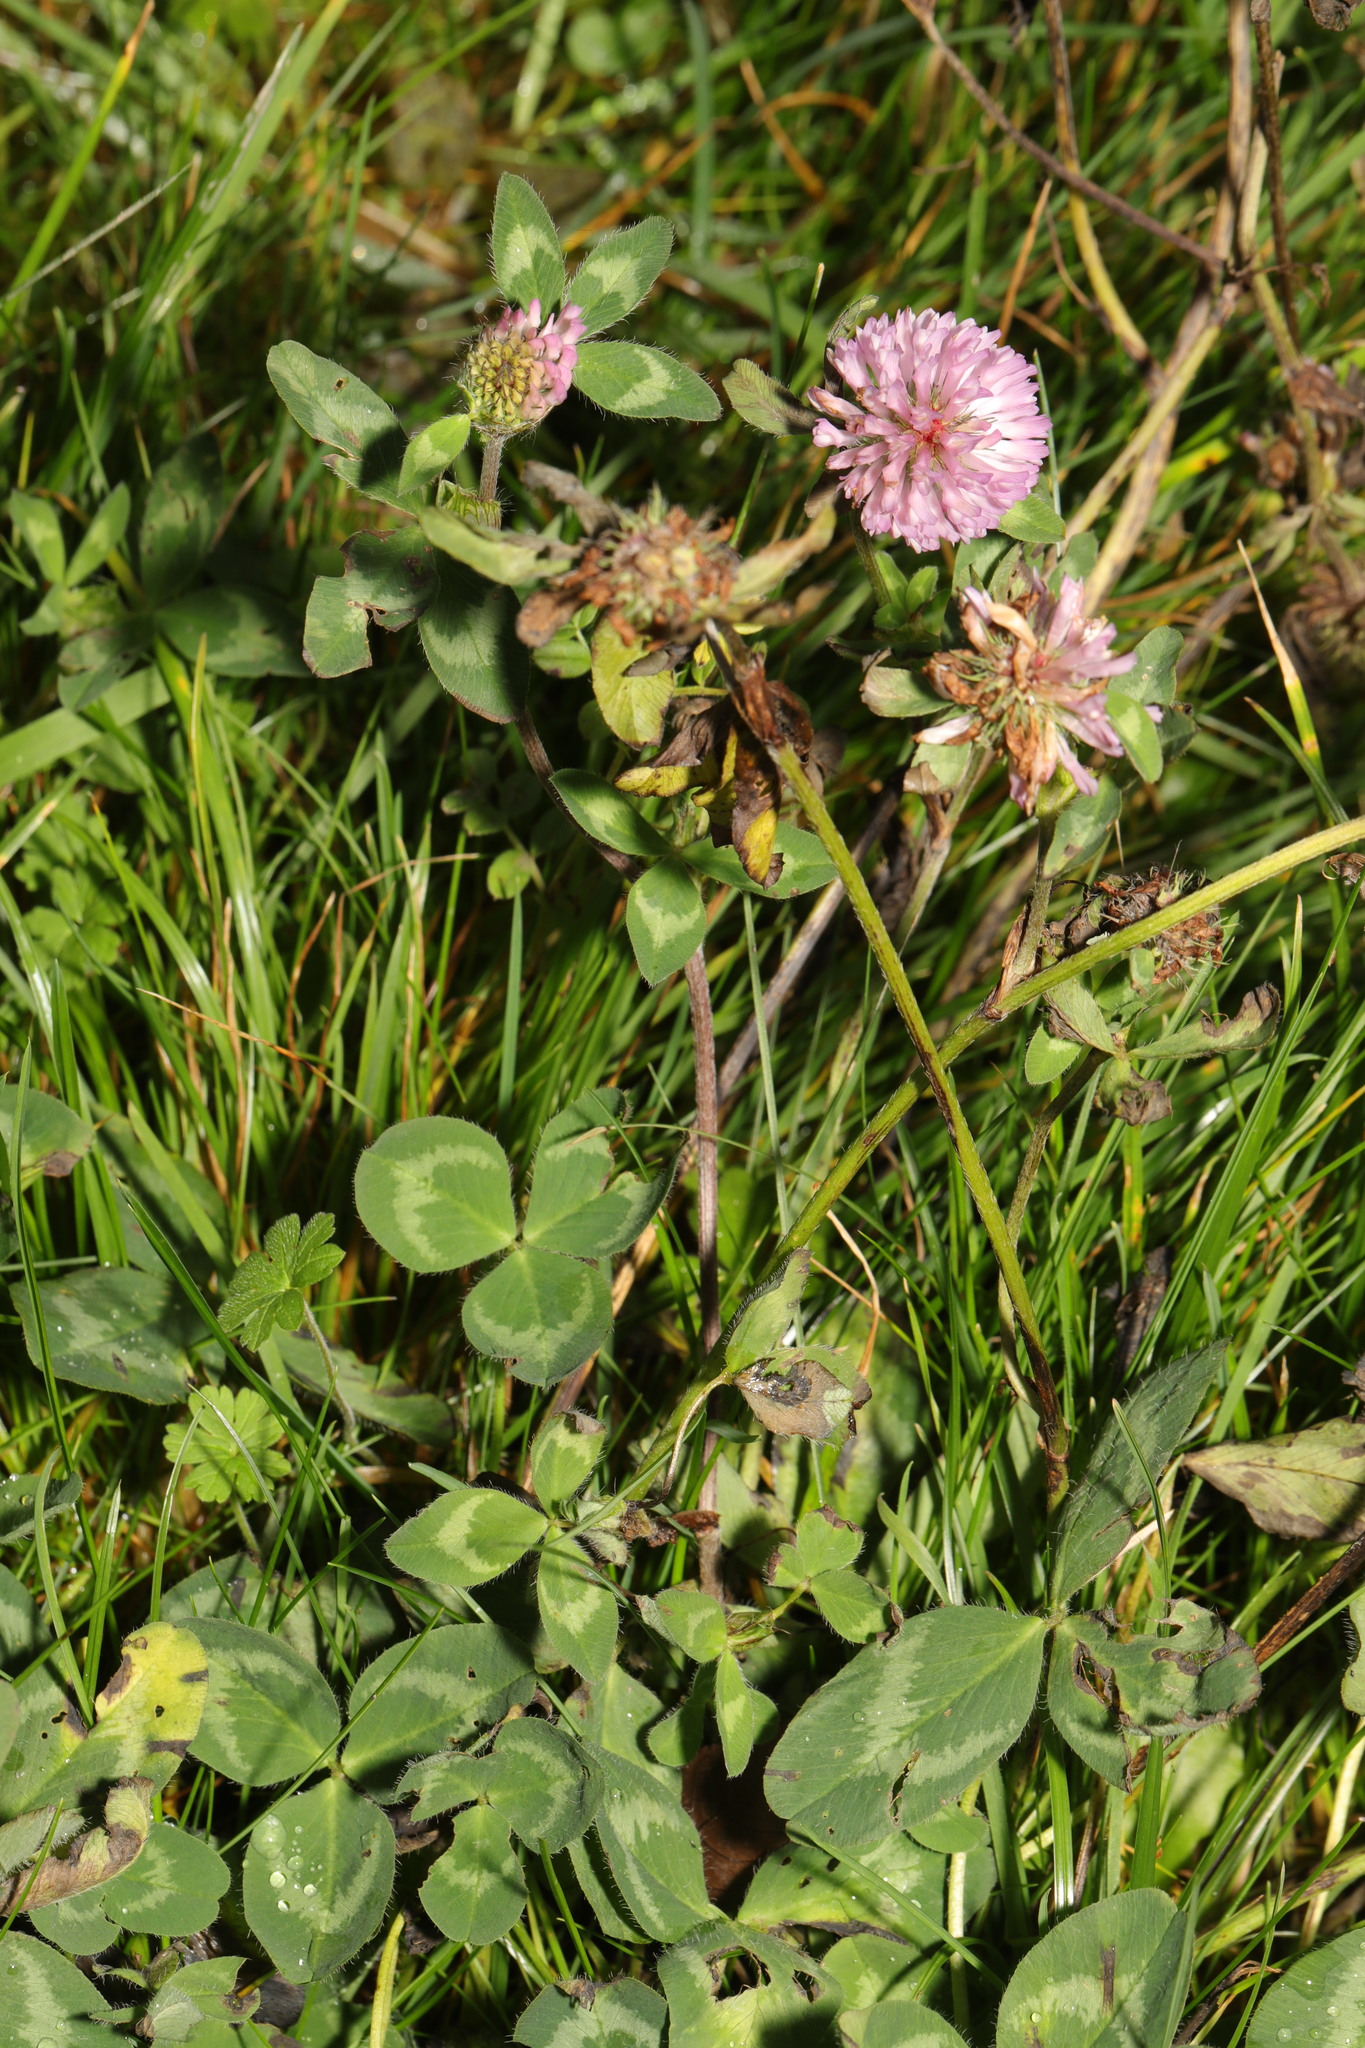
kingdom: Plantae
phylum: Tracheophyta
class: Magnoliopsida
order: Fabales
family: Fabaceae
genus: Trifolium
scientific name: Trifolium pratense
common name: Red clover
